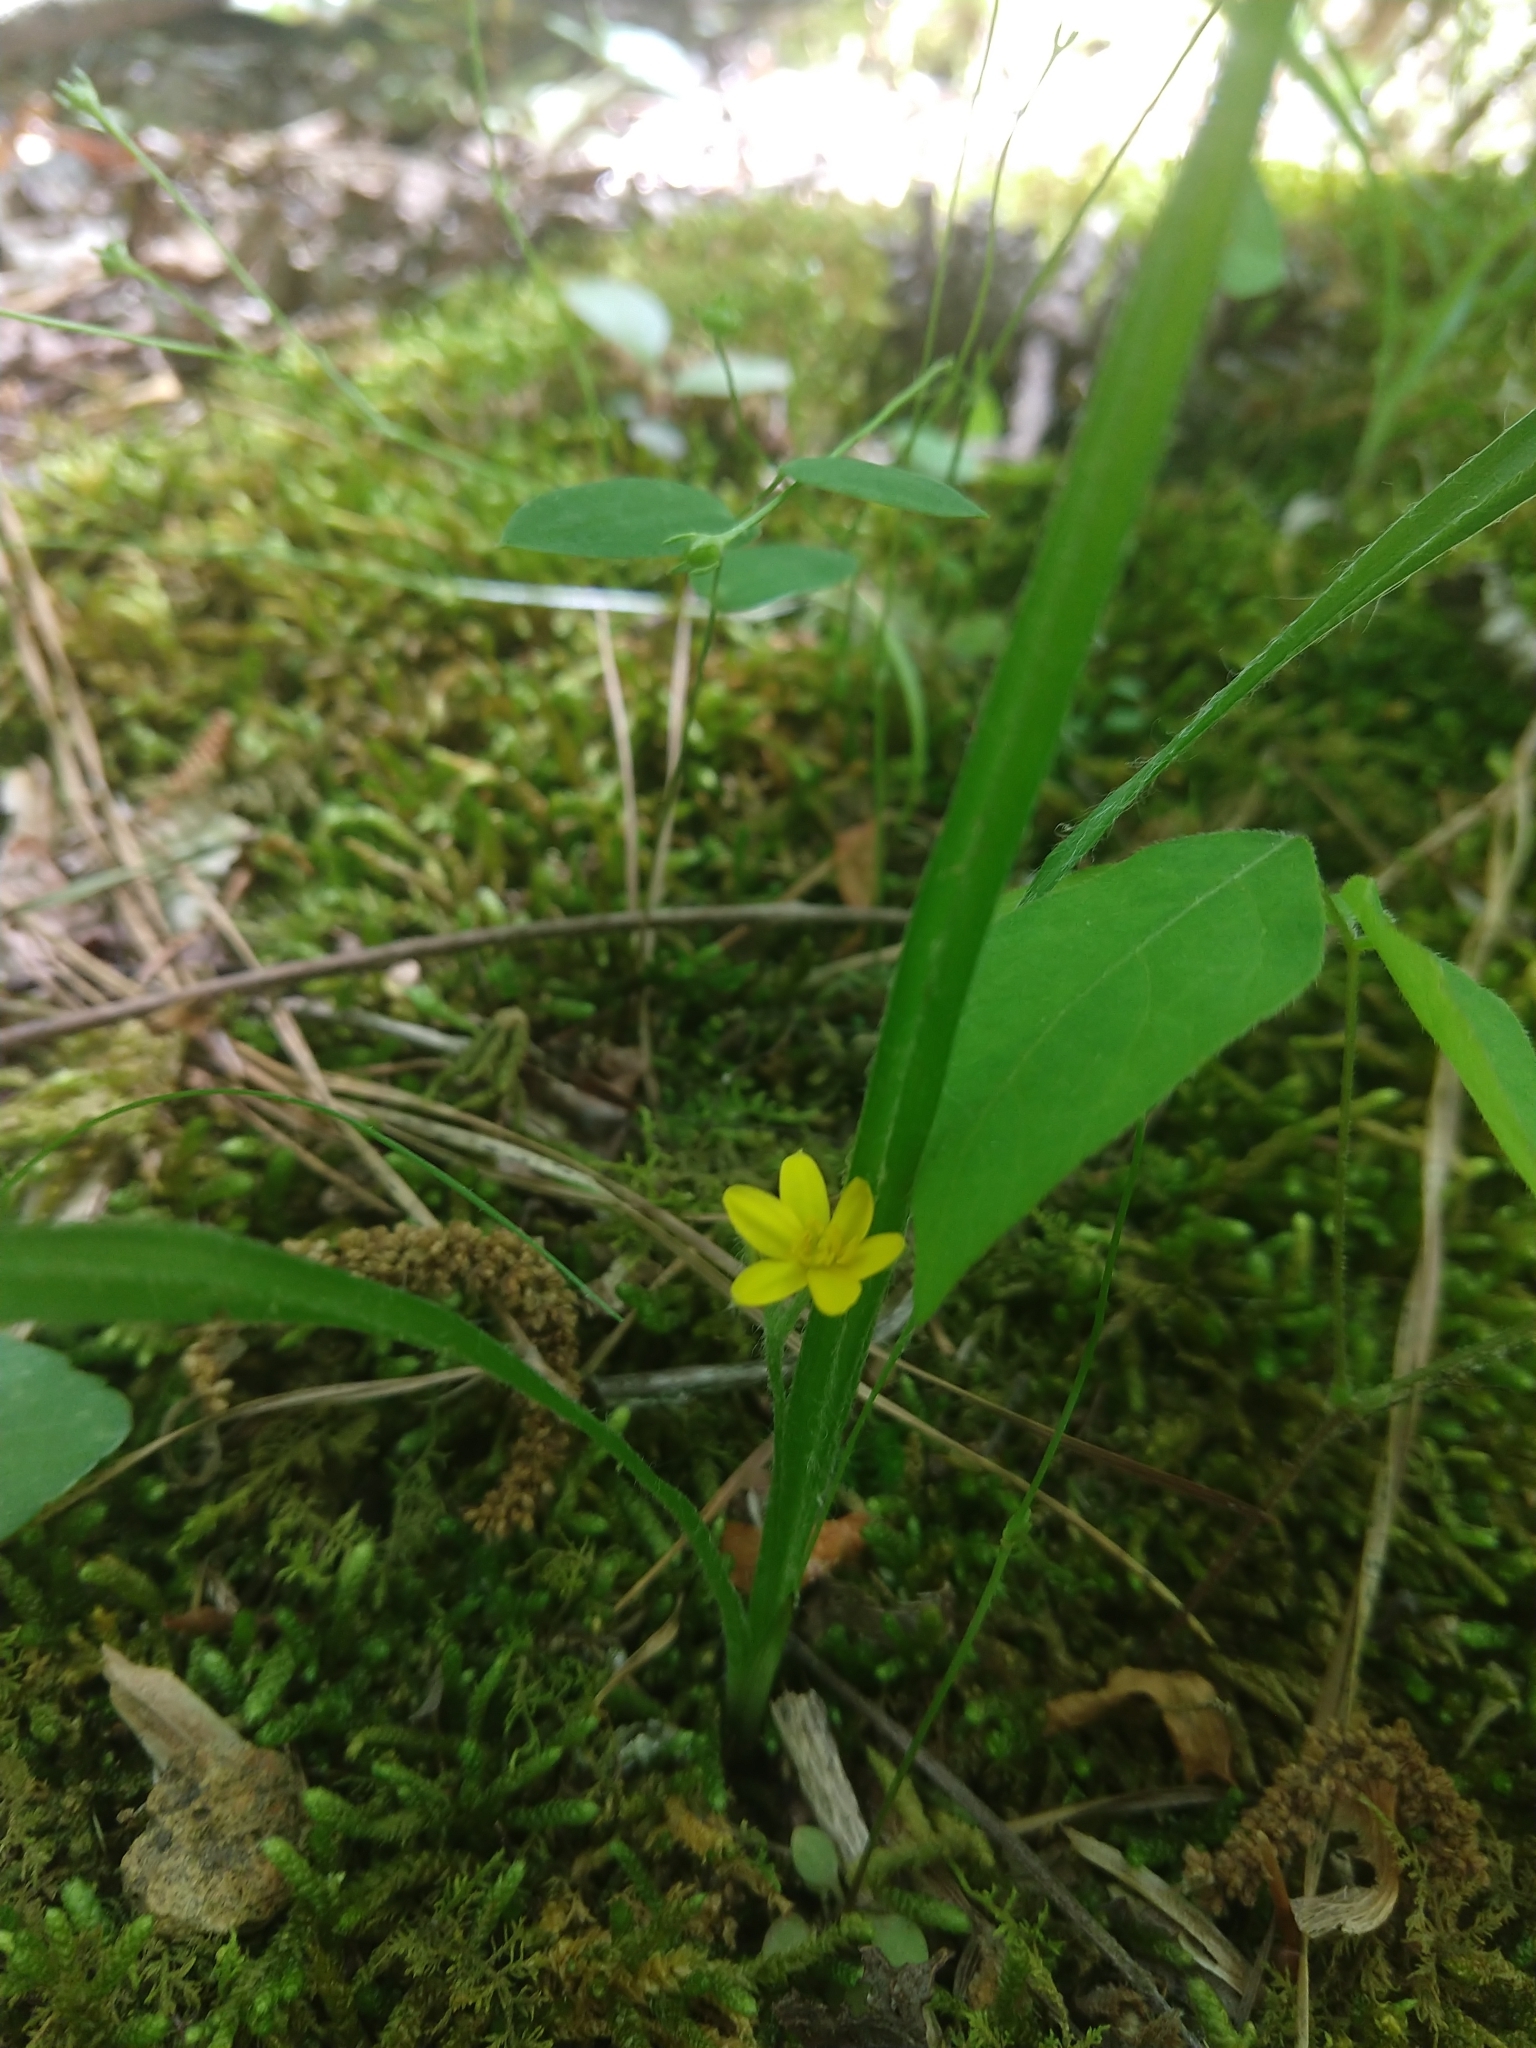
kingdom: Plantae
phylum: Tracheophyta
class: Liliopsida
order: Asparagales
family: Hypoxidaceae
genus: Hypoxis
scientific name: Hypoxis hirsuta
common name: Common goldstar
